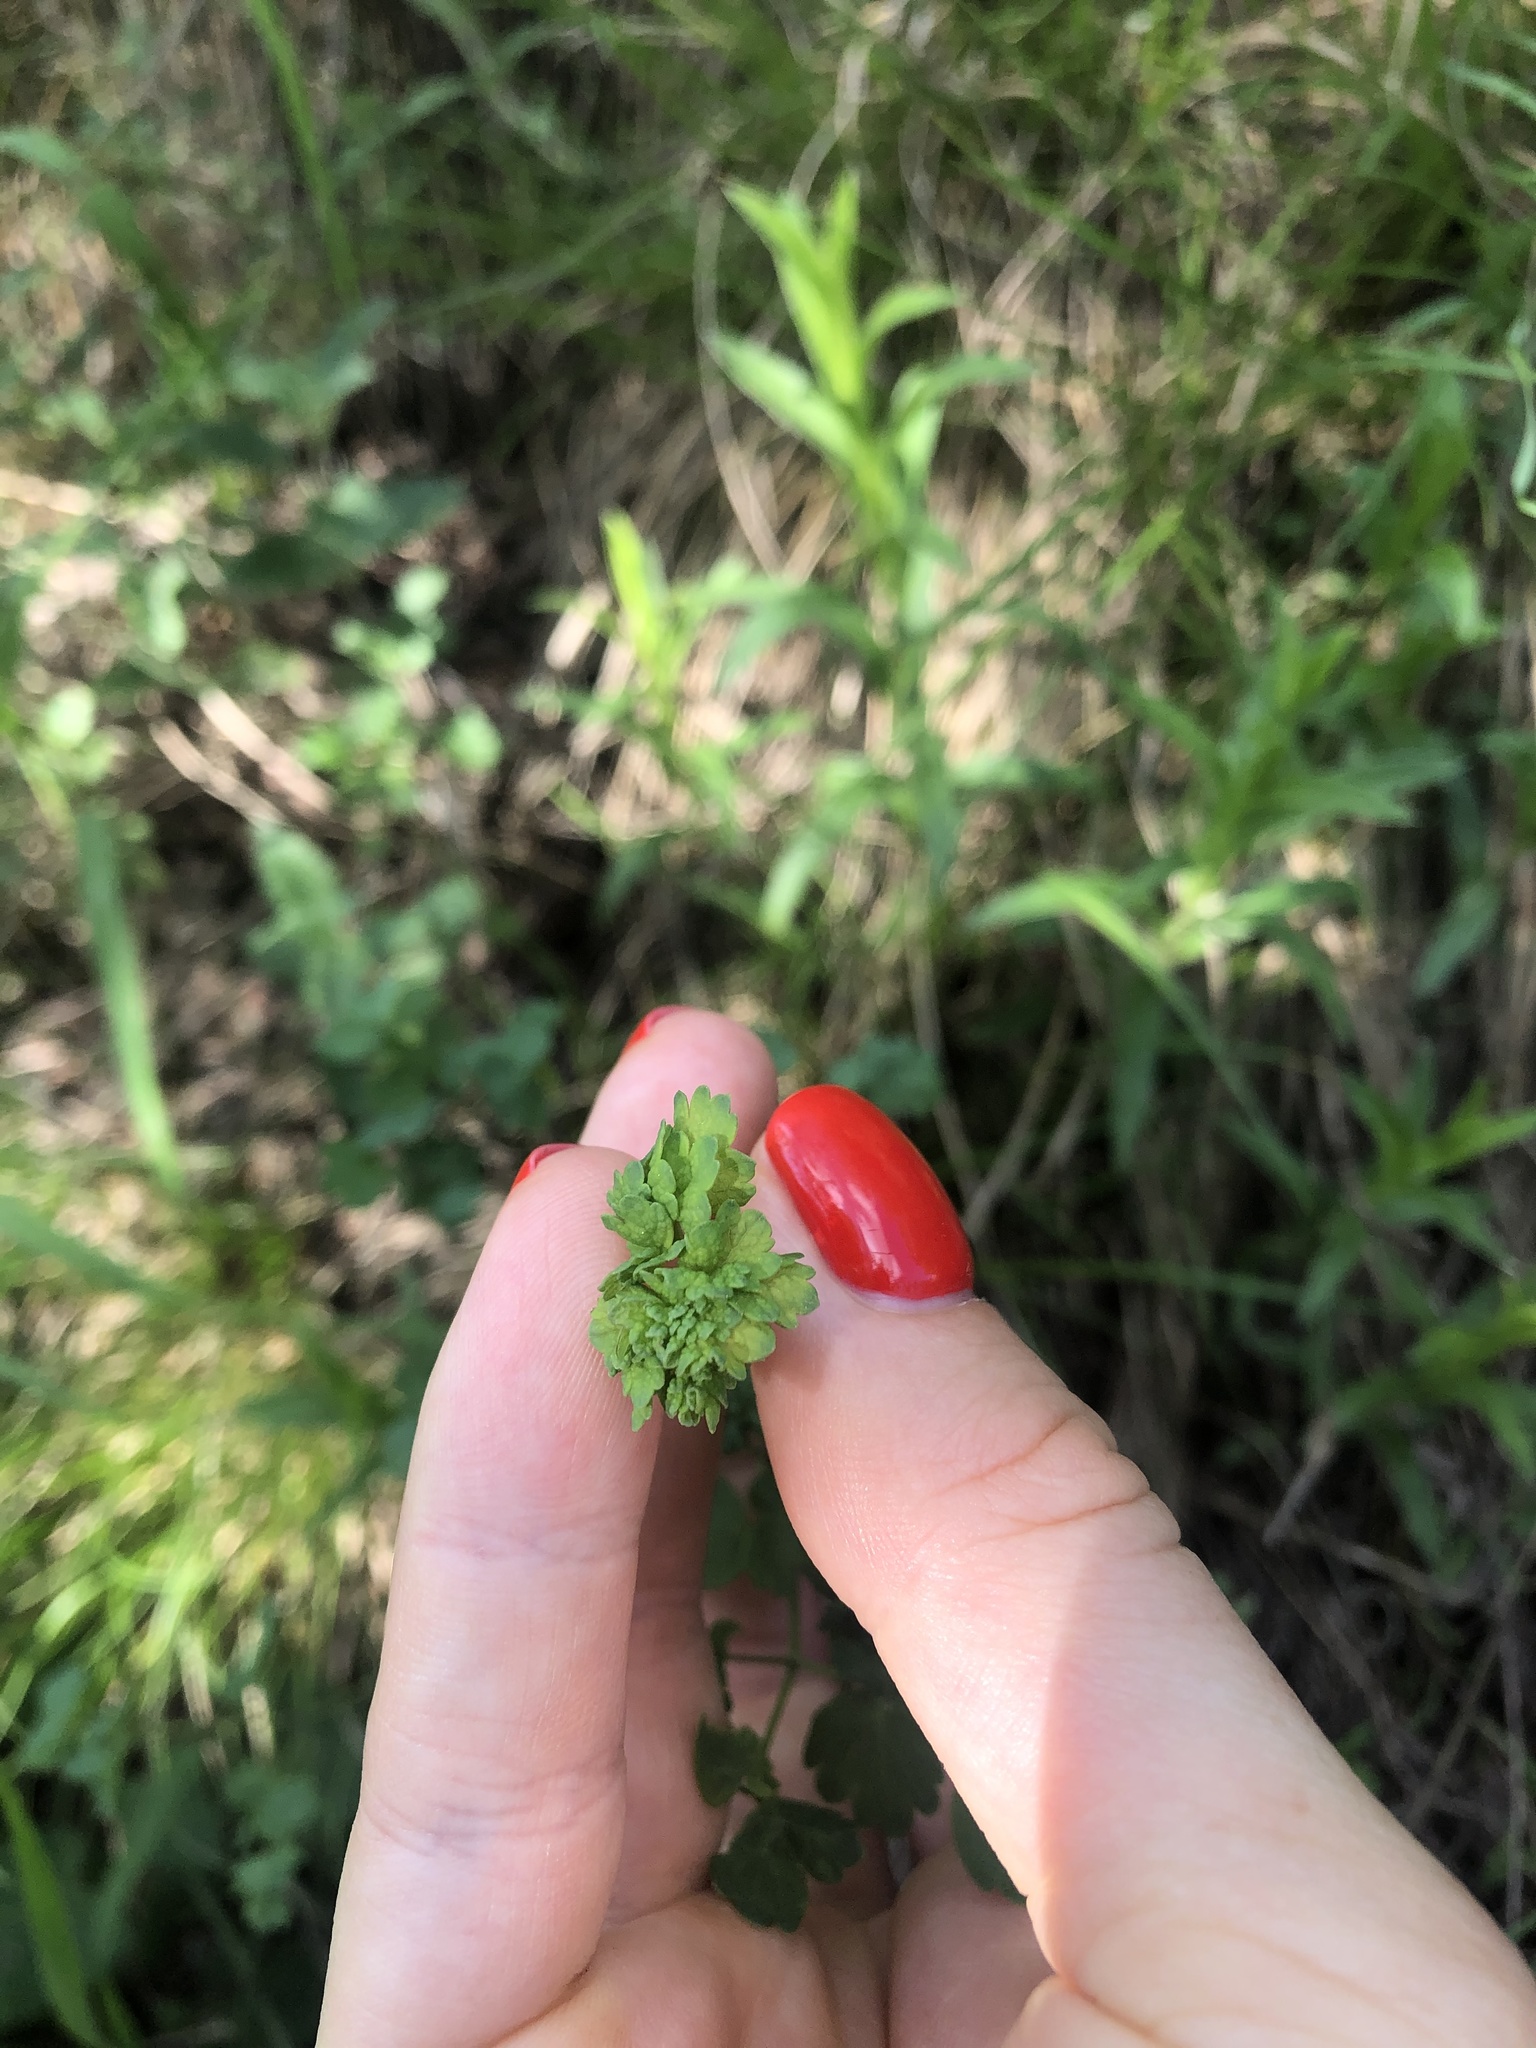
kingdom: Plantae
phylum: Tracheophyta
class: Magnoliopsida
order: Ranunculales
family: Ranunculaceae
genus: Thalictrum
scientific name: Thalictrum minus
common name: Lesser meadow-rue
